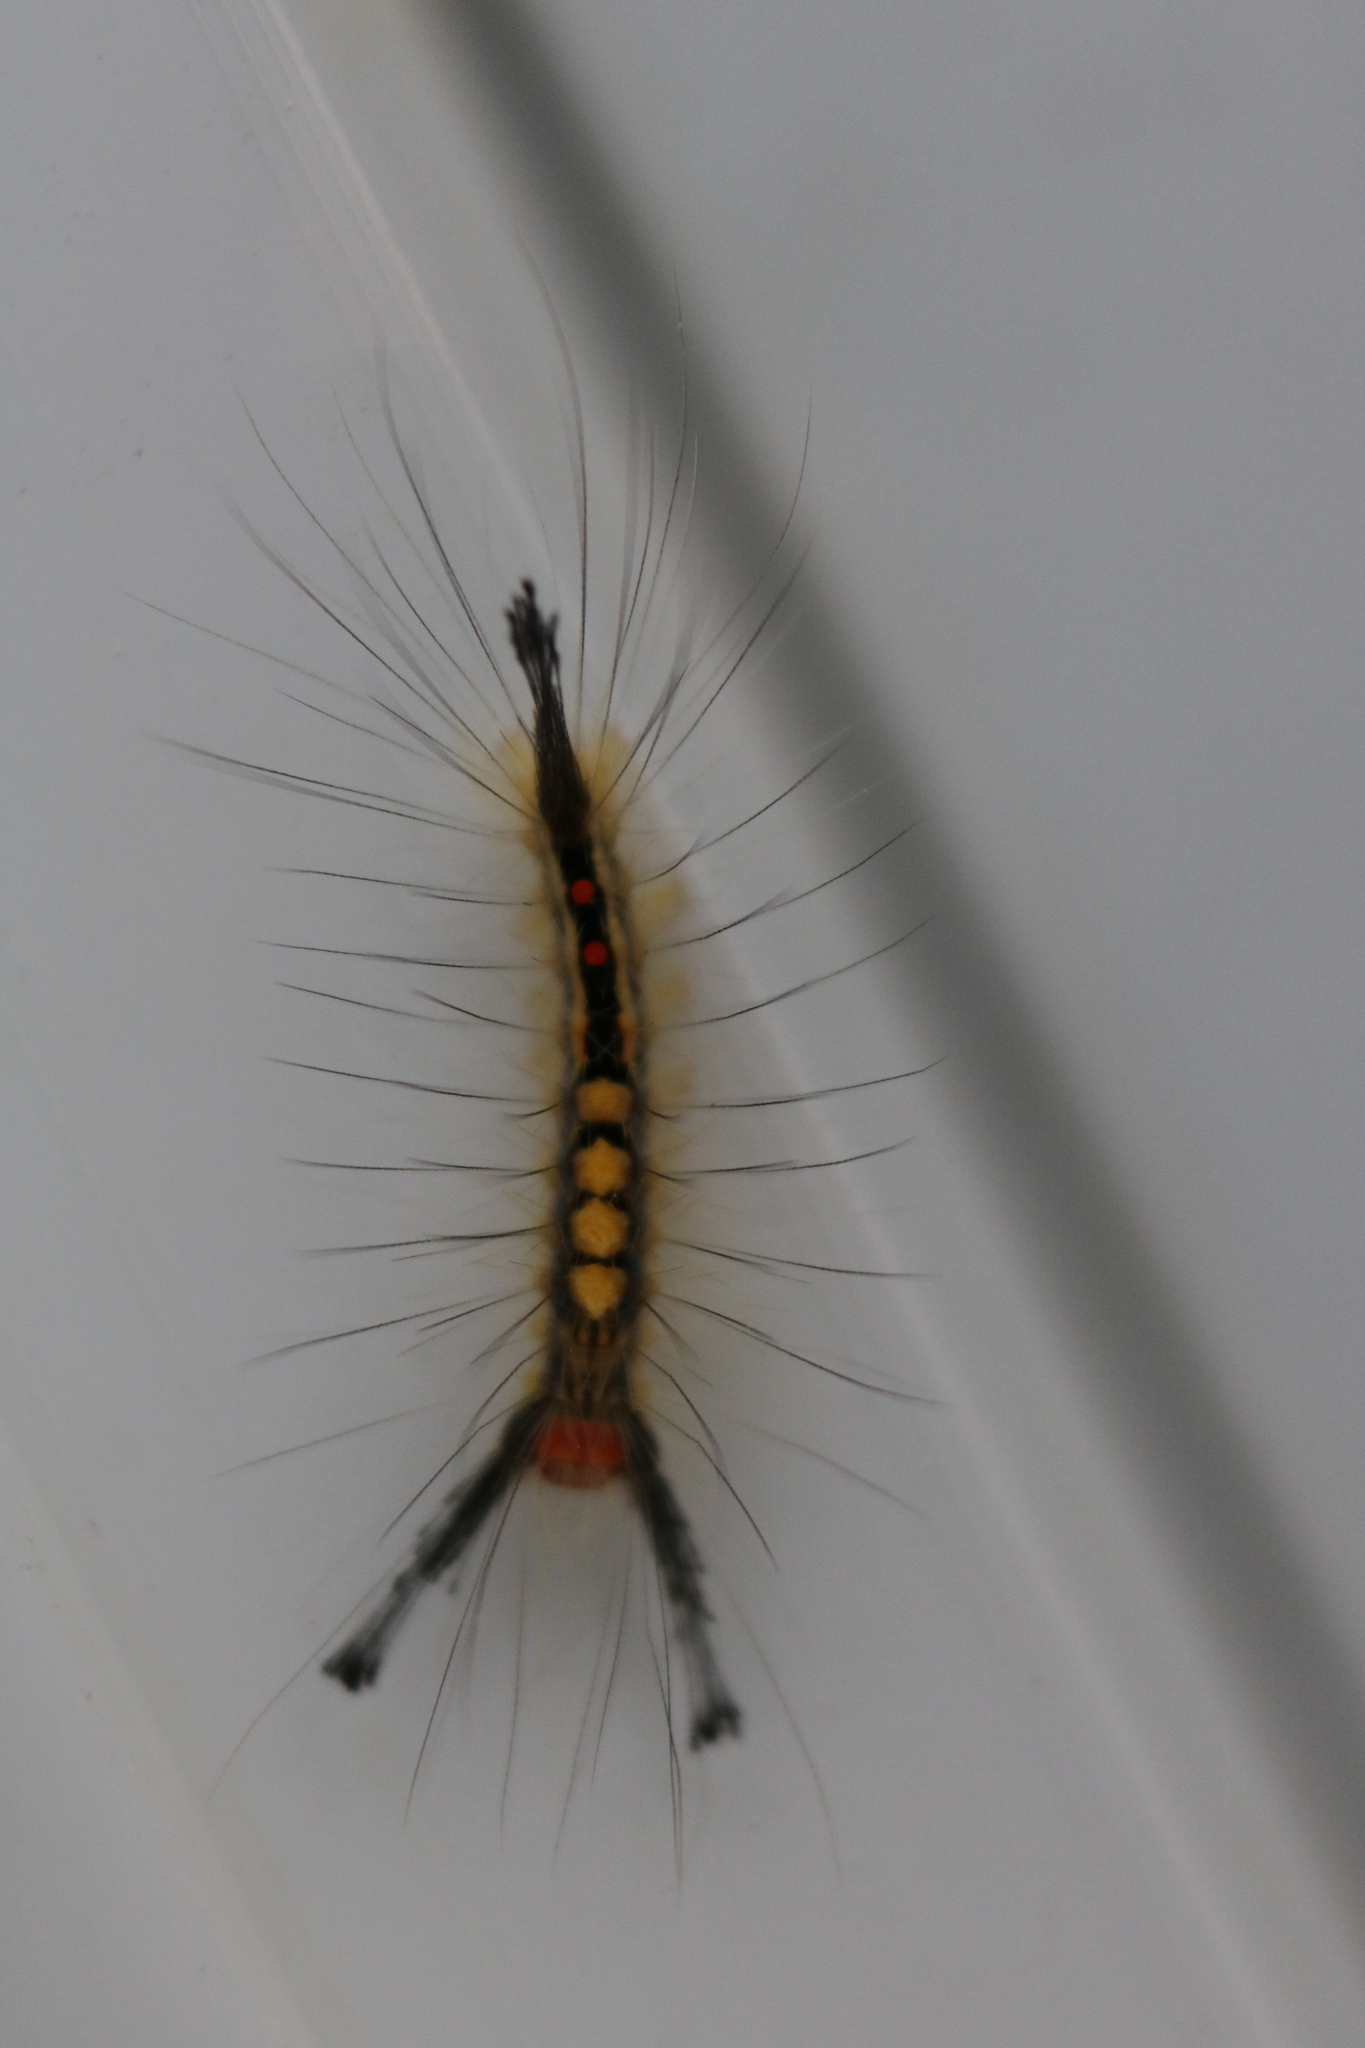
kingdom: Animalia
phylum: Arthropoda
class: Insecta
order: Lepidoptera
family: Erebidae
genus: Orgyia
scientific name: Orgyia leucostigma
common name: White-marked tussock moth
